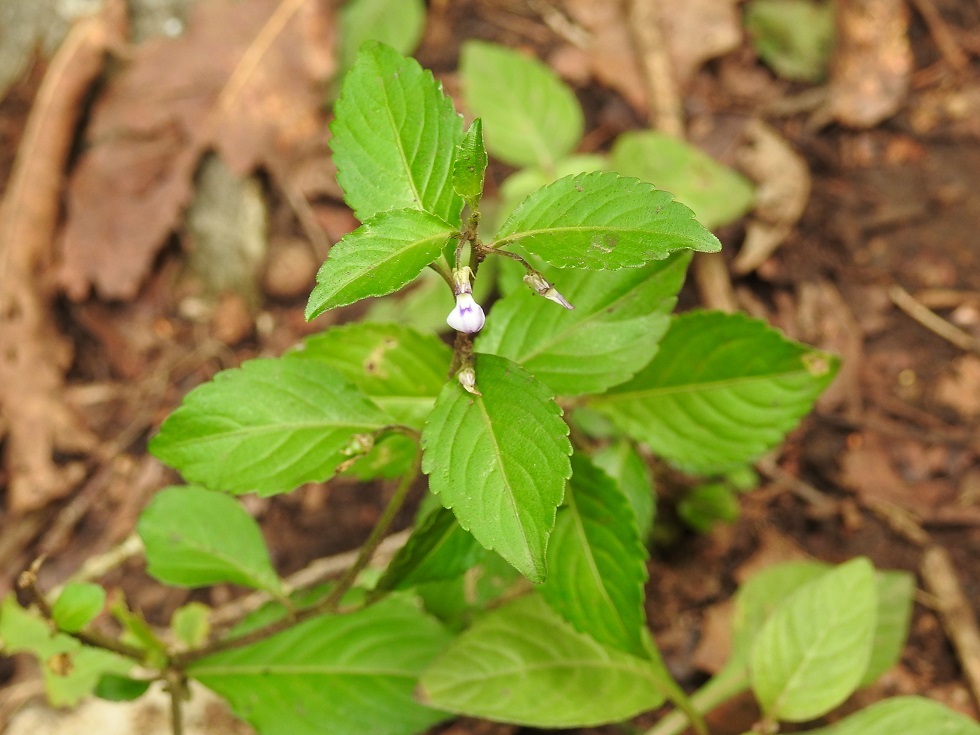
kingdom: Plantae
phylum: Tracheophyta
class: Magnoliopsida
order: Malpighiales
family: Violaceae
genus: Hybanthus
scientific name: Hybanthus longipes
